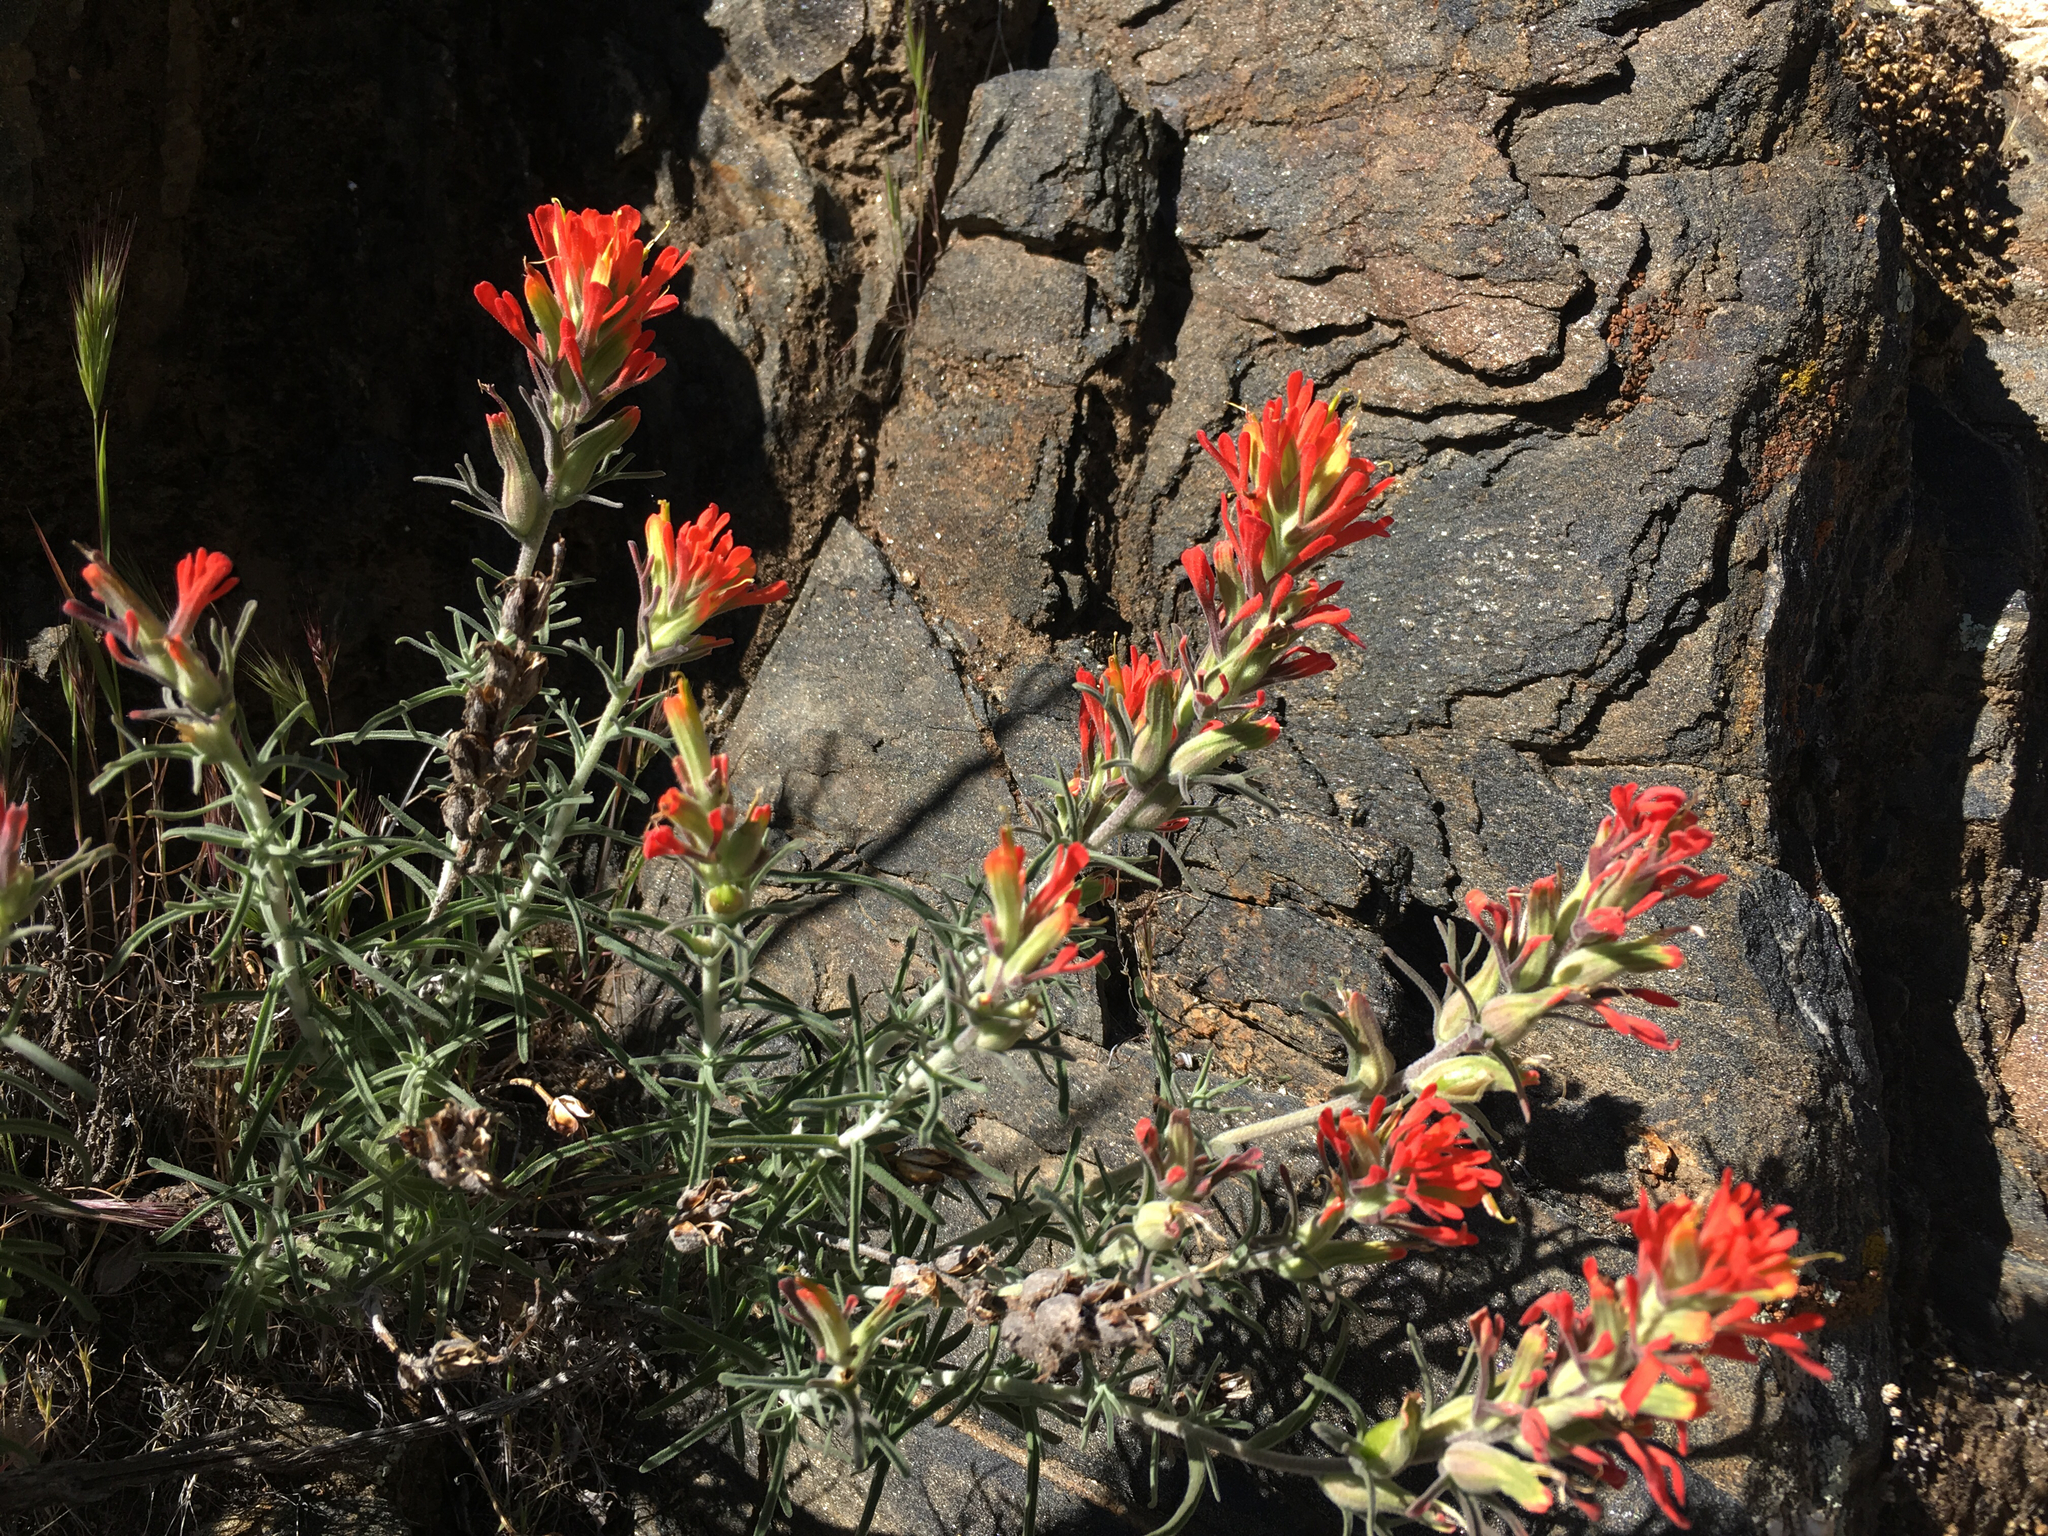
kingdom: Plantae
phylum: Tracheophyta
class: Magnoliopsida
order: Lamiales
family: Orobanchaceae
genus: Castilleja
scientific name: Castilleja foliolosa
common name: Woolly indian paintbrush
